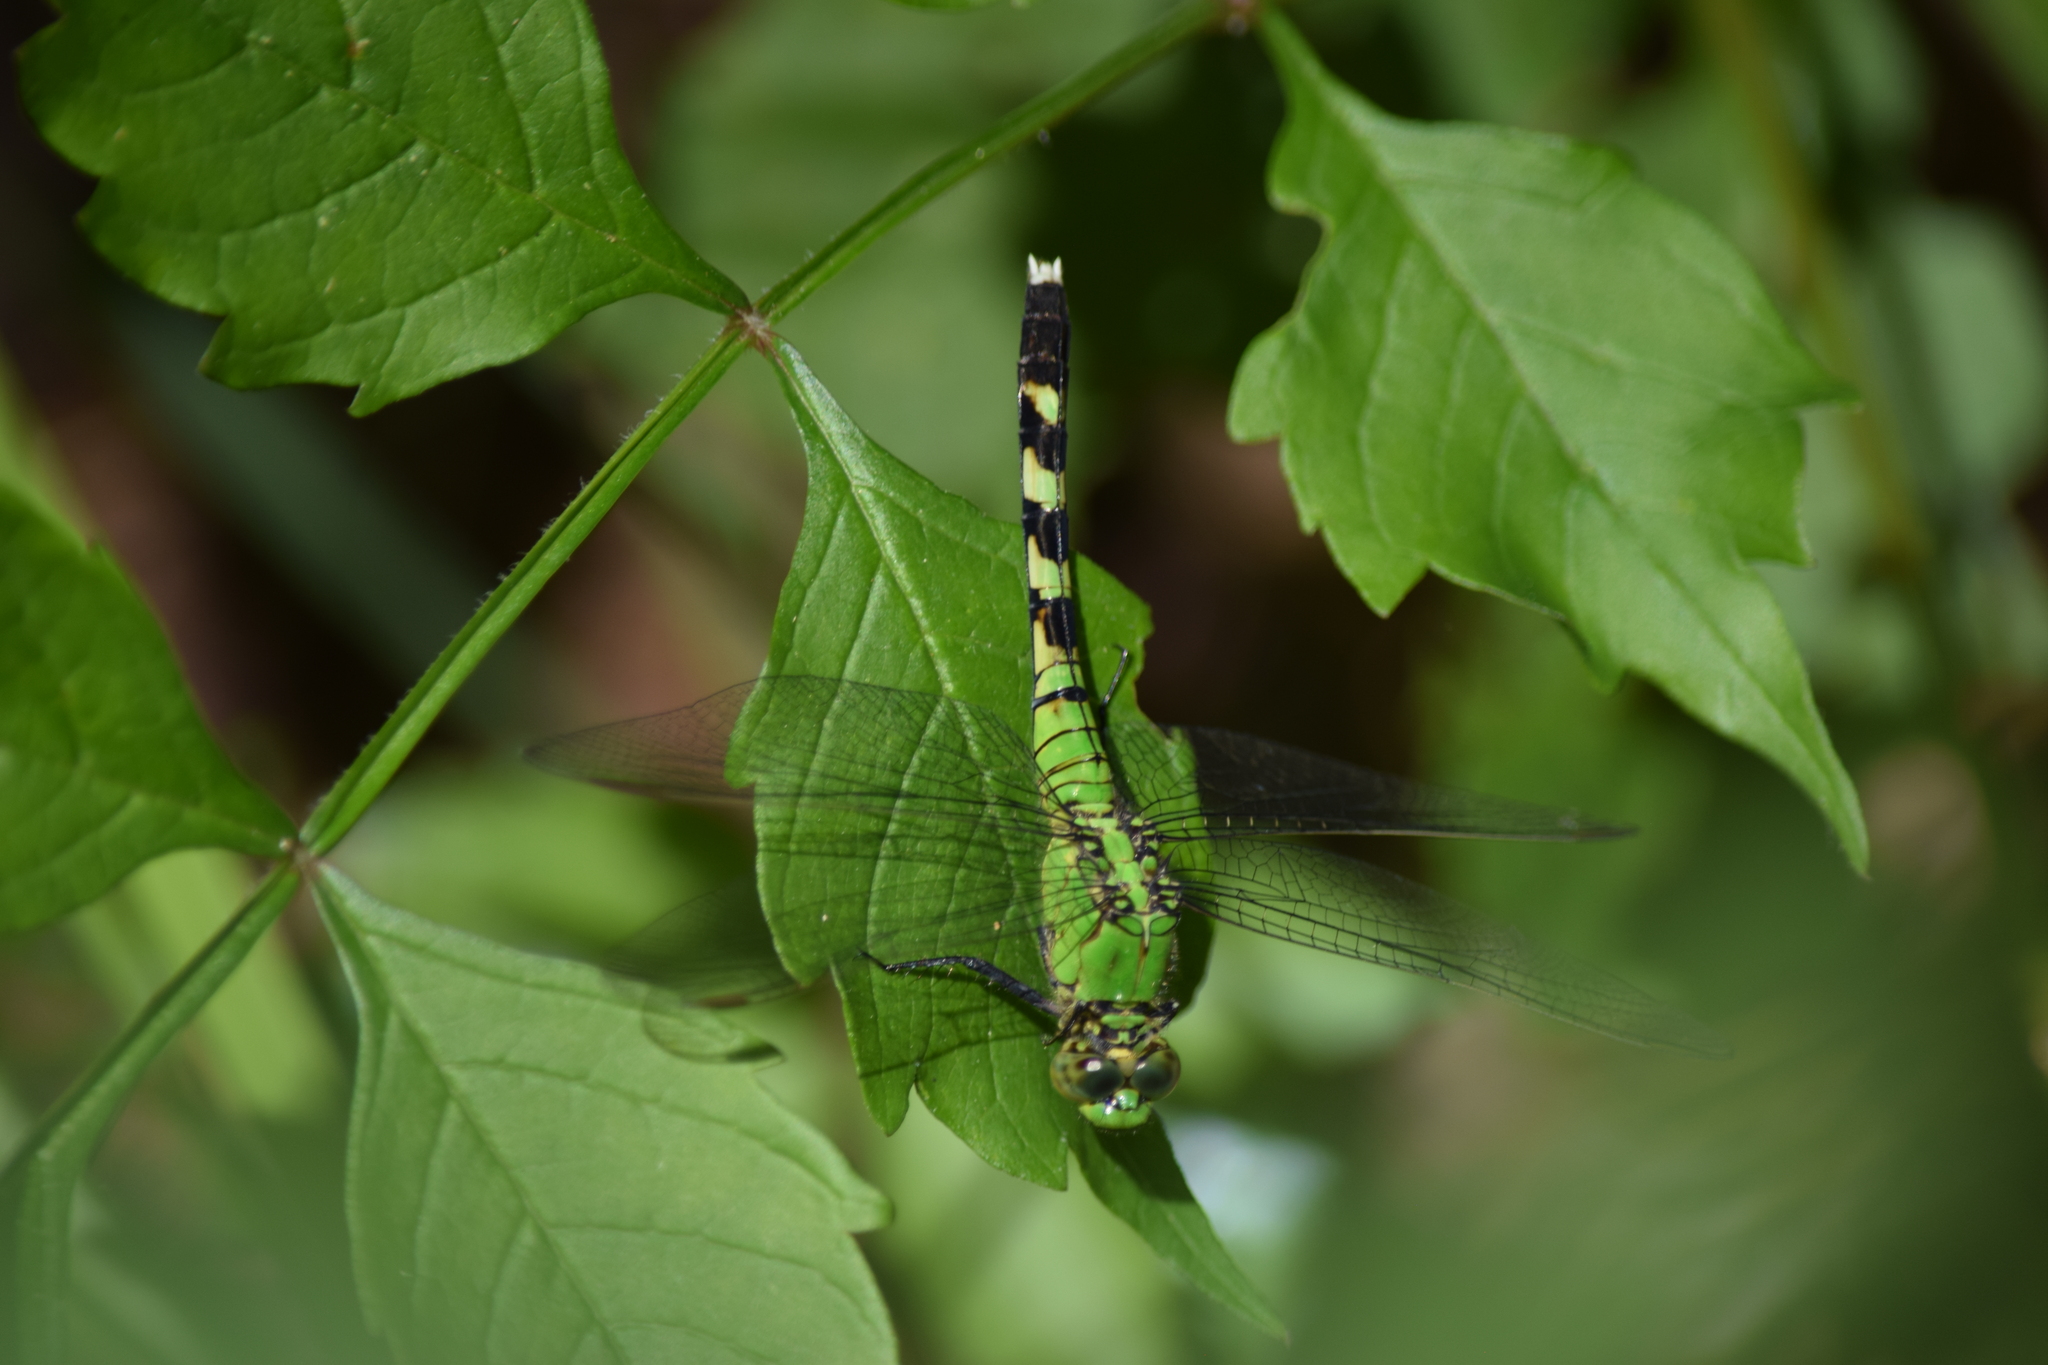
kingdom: Animalia
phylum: Arthropoda
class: Insecta
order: Odonata
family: Libellulidae
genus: Erythemis
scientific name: Erythemis simplicicollis
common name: Eastern pondhawk
